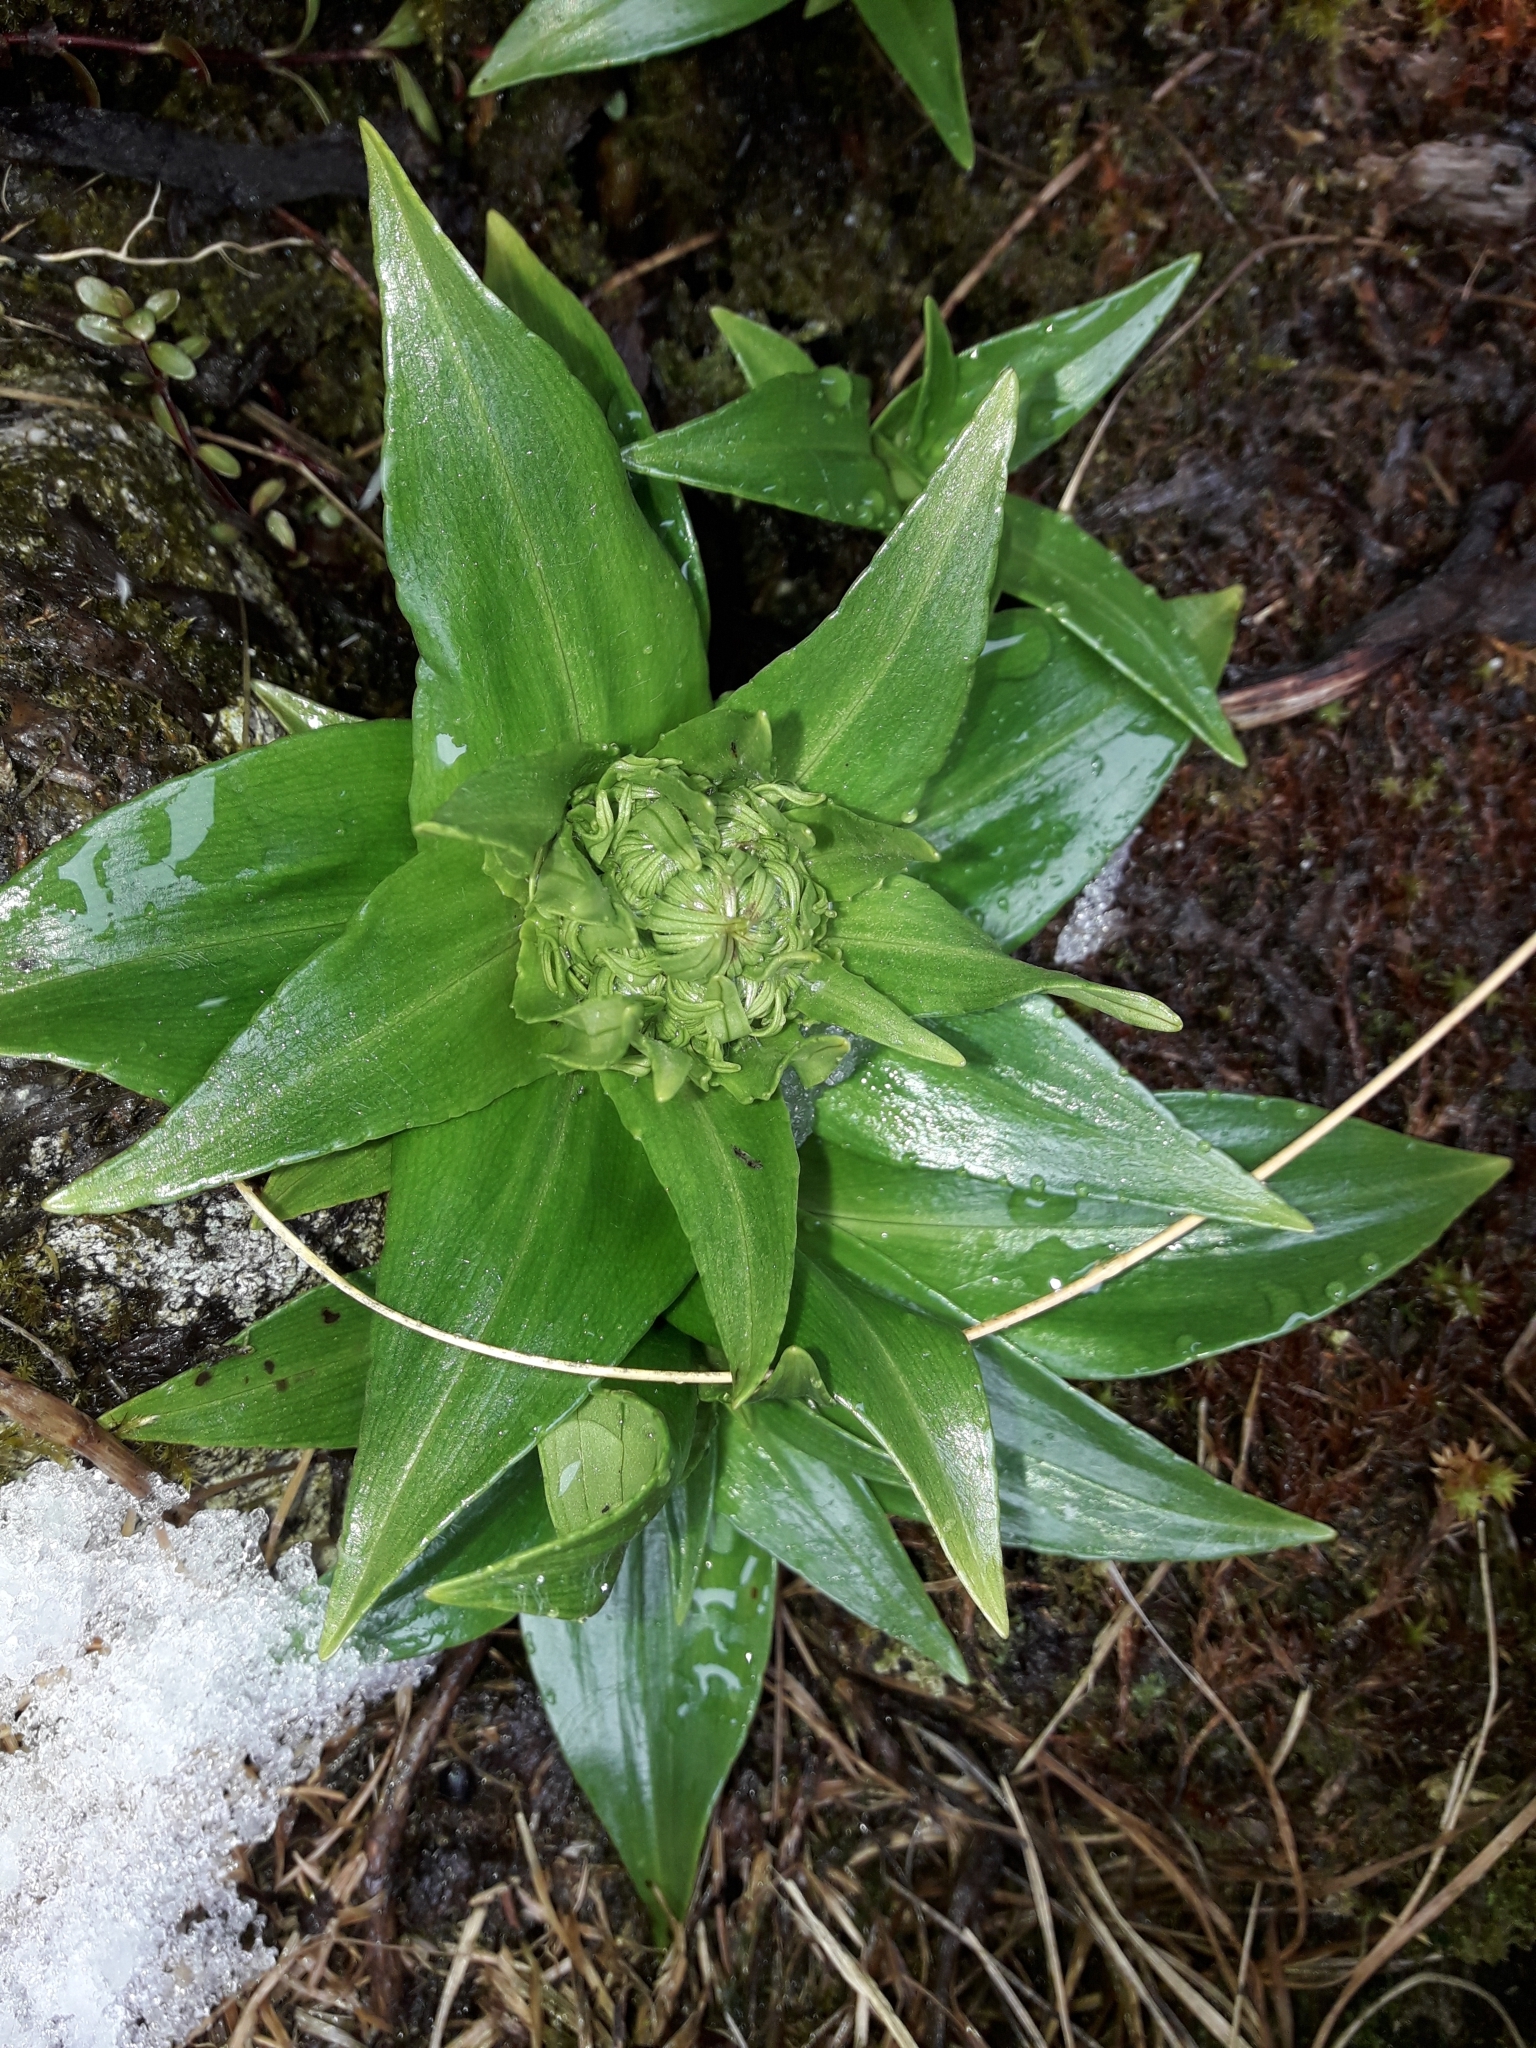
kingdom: Plantae
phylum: Tracheophyta
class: Magnoliopsida
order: Asterales
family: Asteraceae
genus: Celmisia
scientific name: Celmisia holosericea
